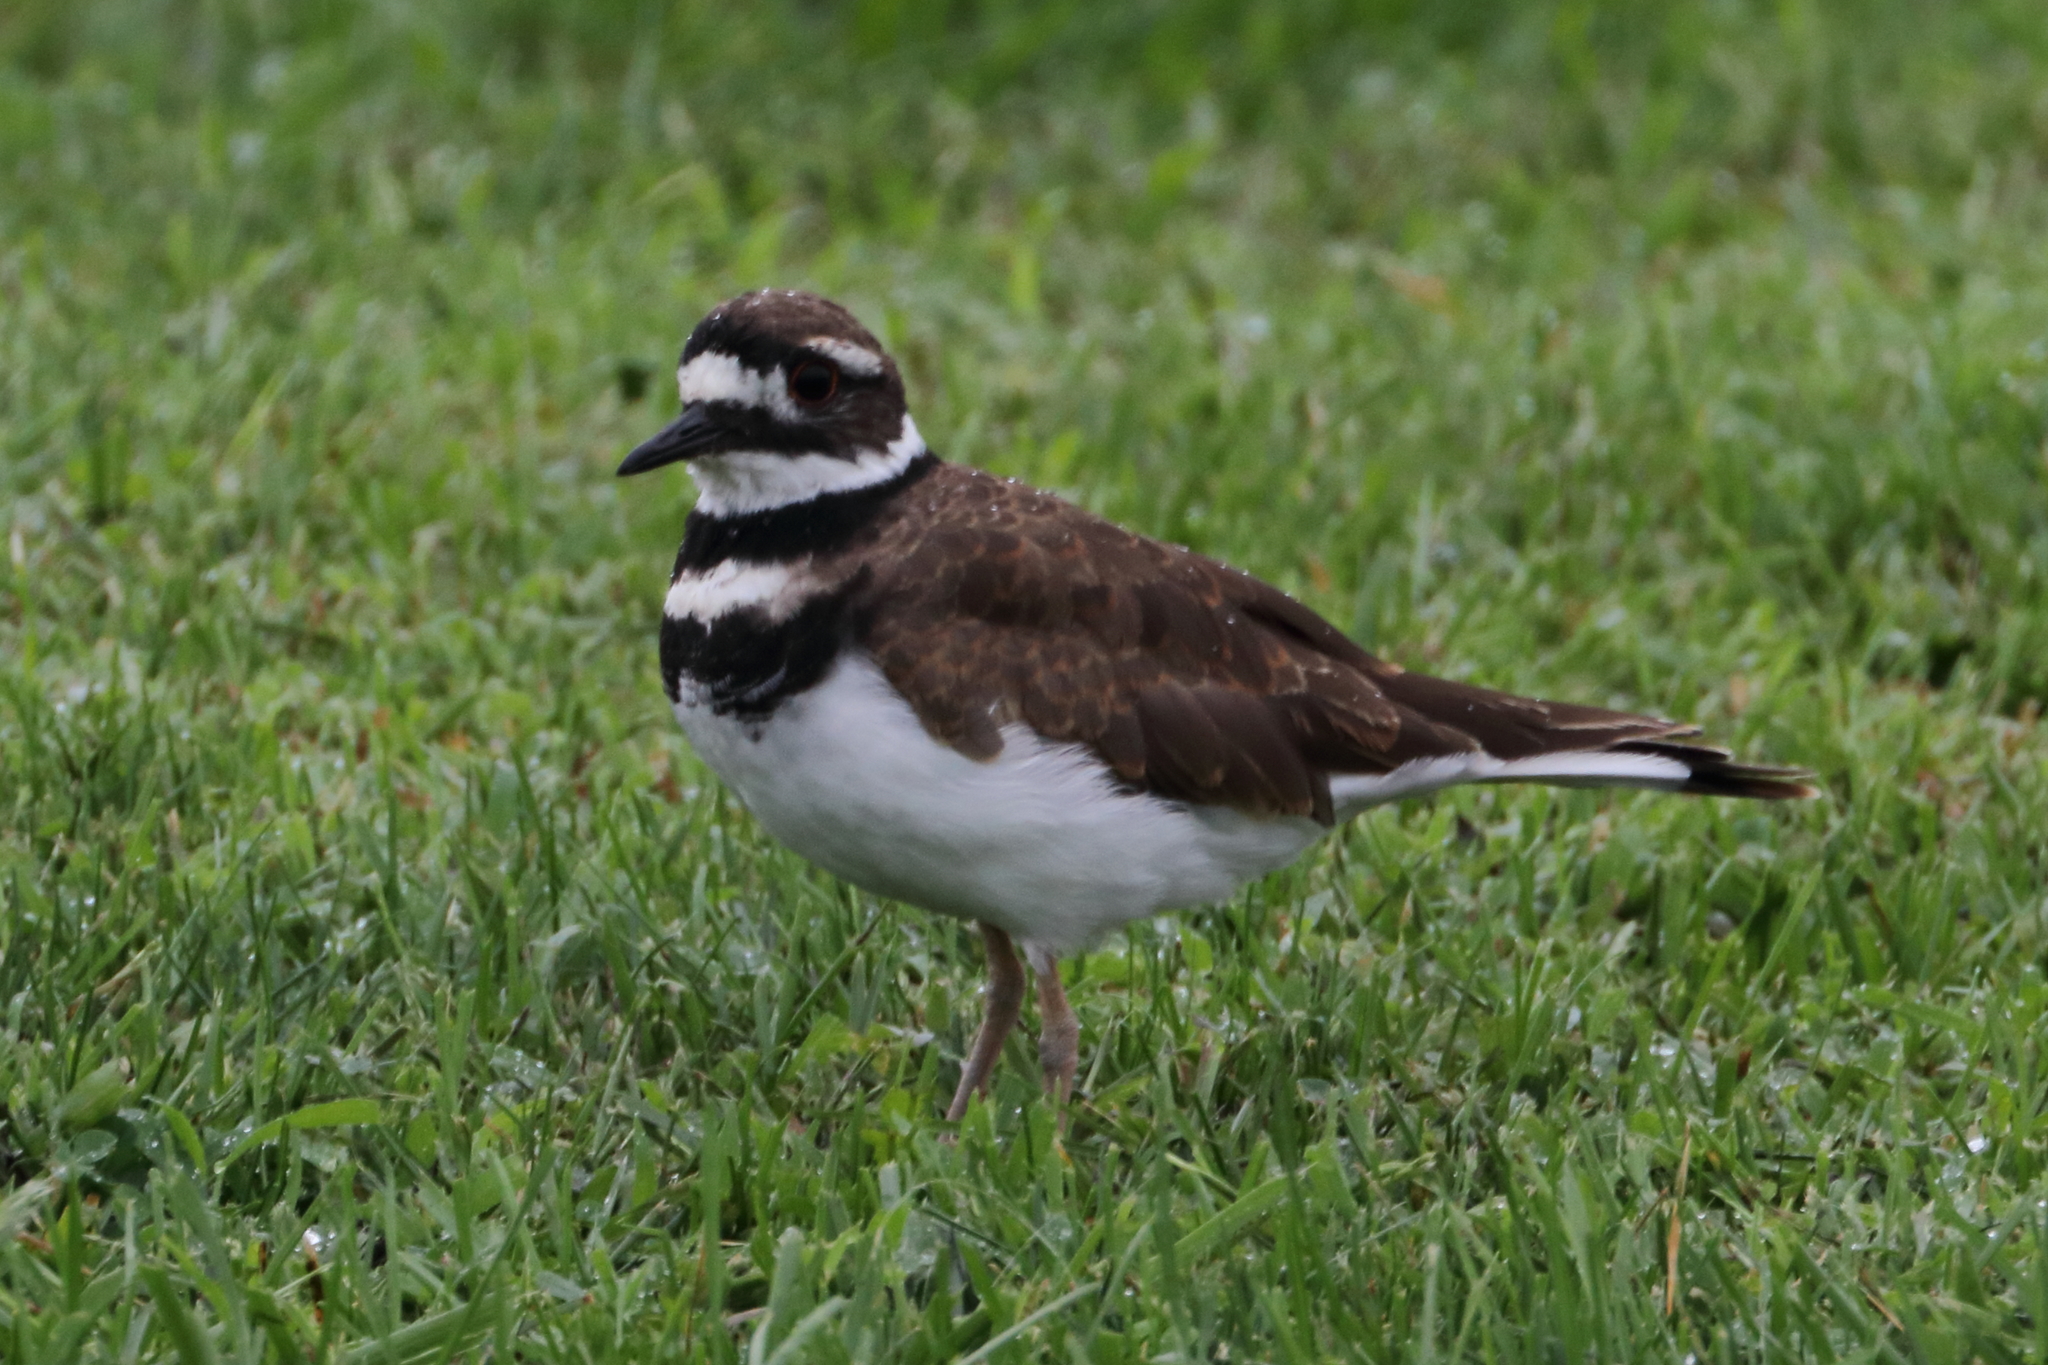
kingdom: Animalia
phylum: Chordata
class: Aves
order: Charadriiformes
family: Charadriidae
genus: Charadrius
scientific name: Charadrius vociferus
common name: Killdeer
